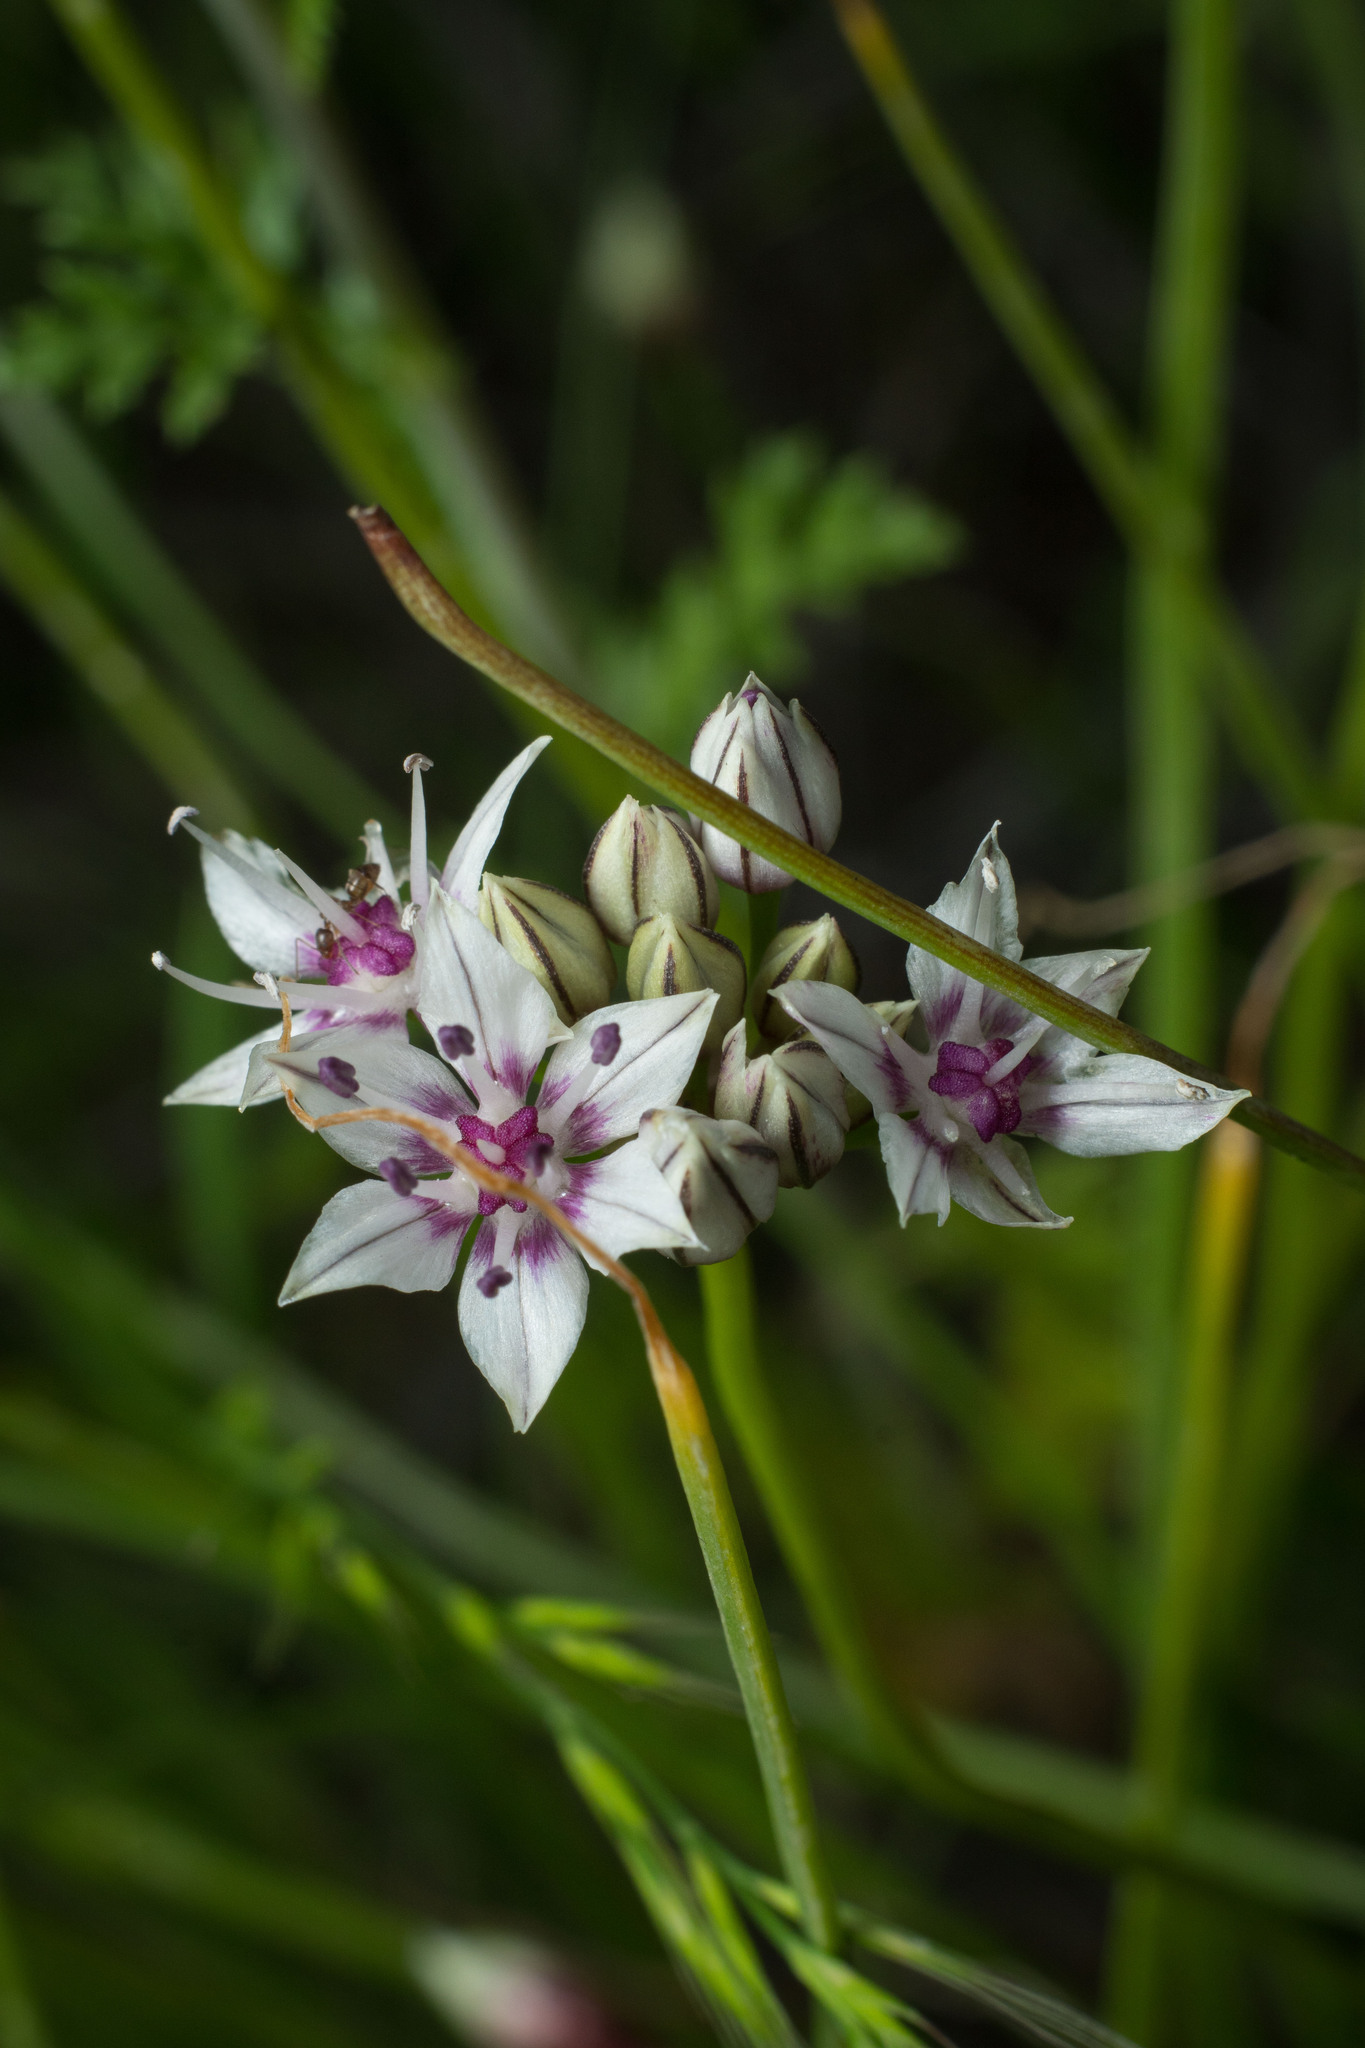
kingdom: Plantae
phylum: Tracheophyta
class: Liliopsida
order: Asparagales
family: Amaryllidaceae
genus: Allium
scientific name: Allium haematochiton
